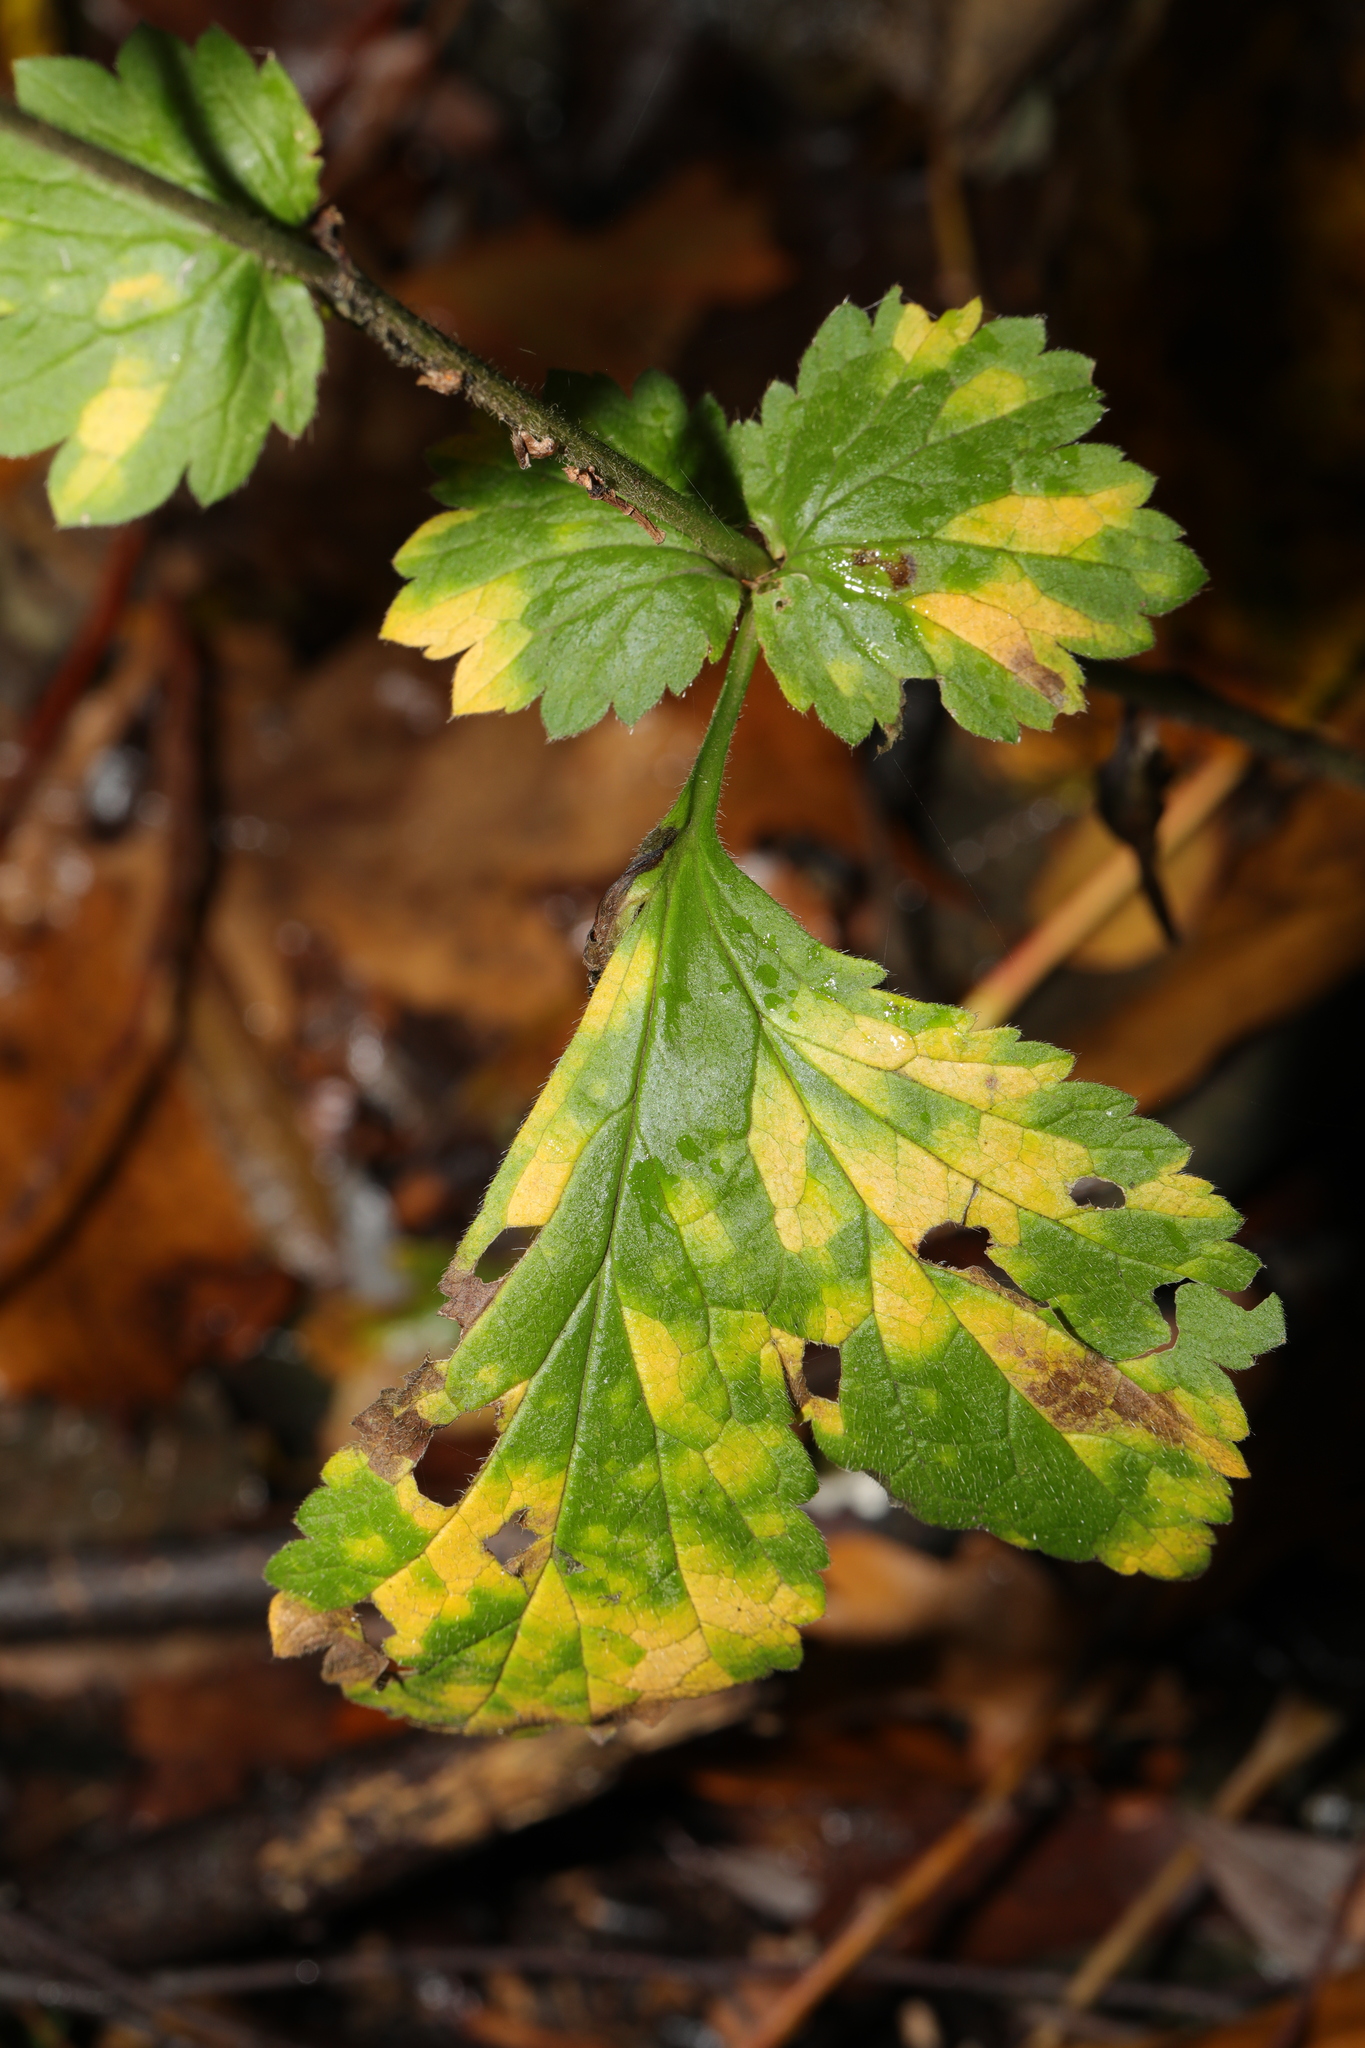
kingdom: Plantae
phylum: Tracheophyta
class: Magnoliopsida
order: Rosales
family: Rosaceae
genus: Geum
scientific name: Geum urbanum
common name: Wood avens
